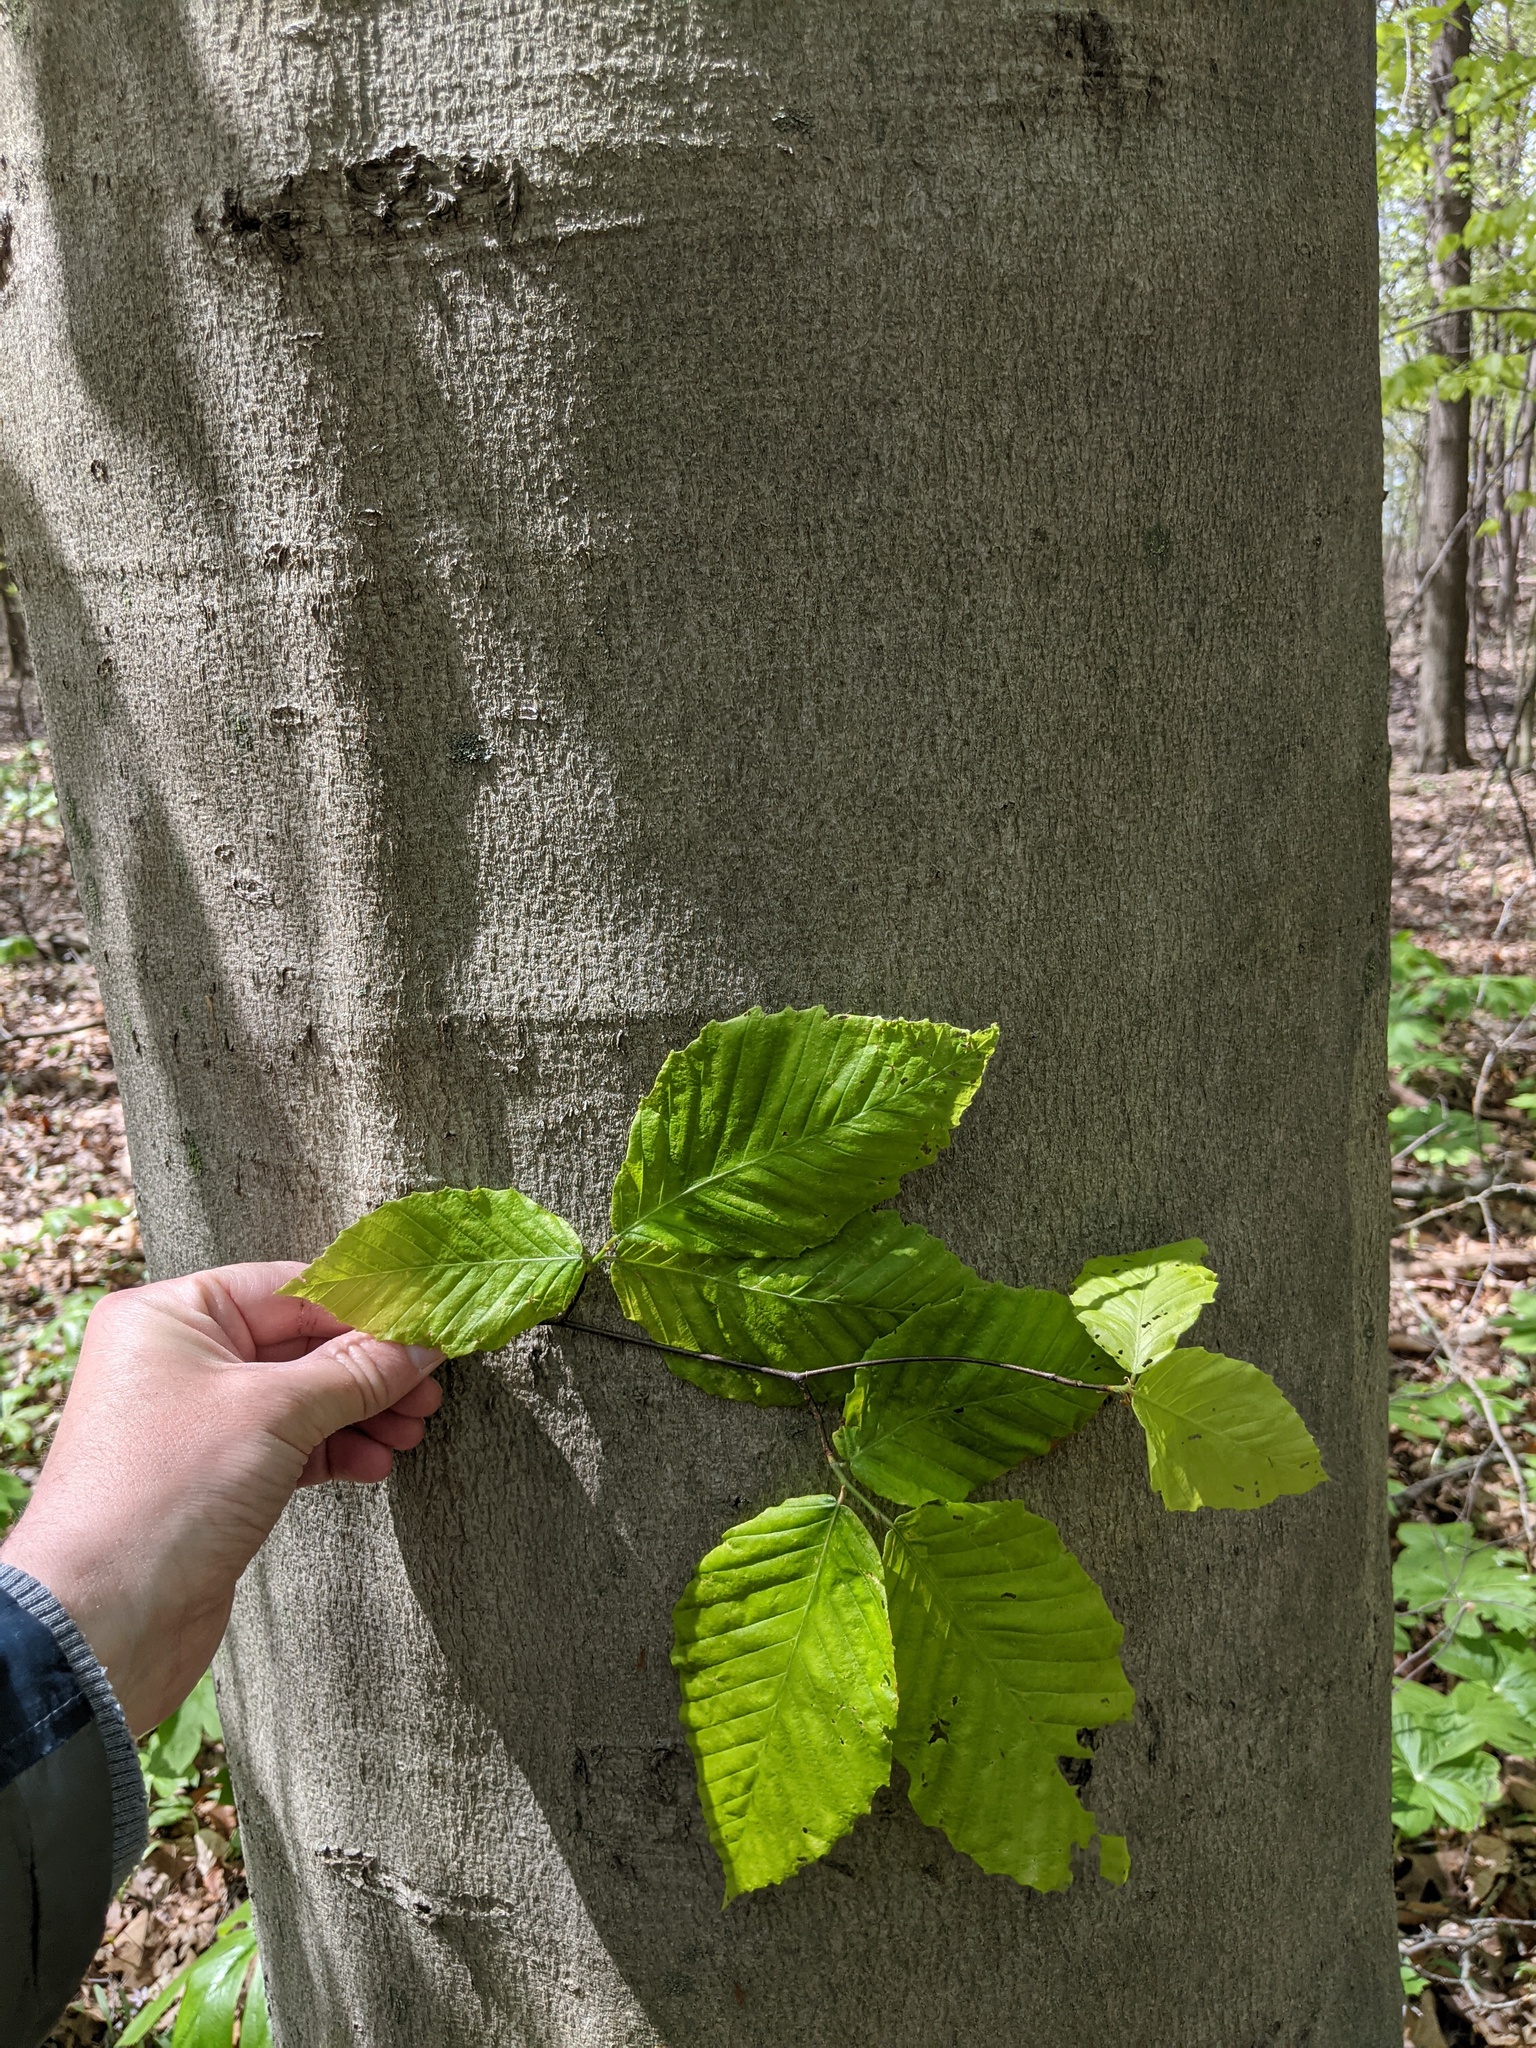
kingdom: Plantae
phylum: Tracheophyta
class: Magnoliopsida
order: Fagales
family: Fagaceae
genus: Fagus
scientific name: Fagus grandifolia
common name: American beech
